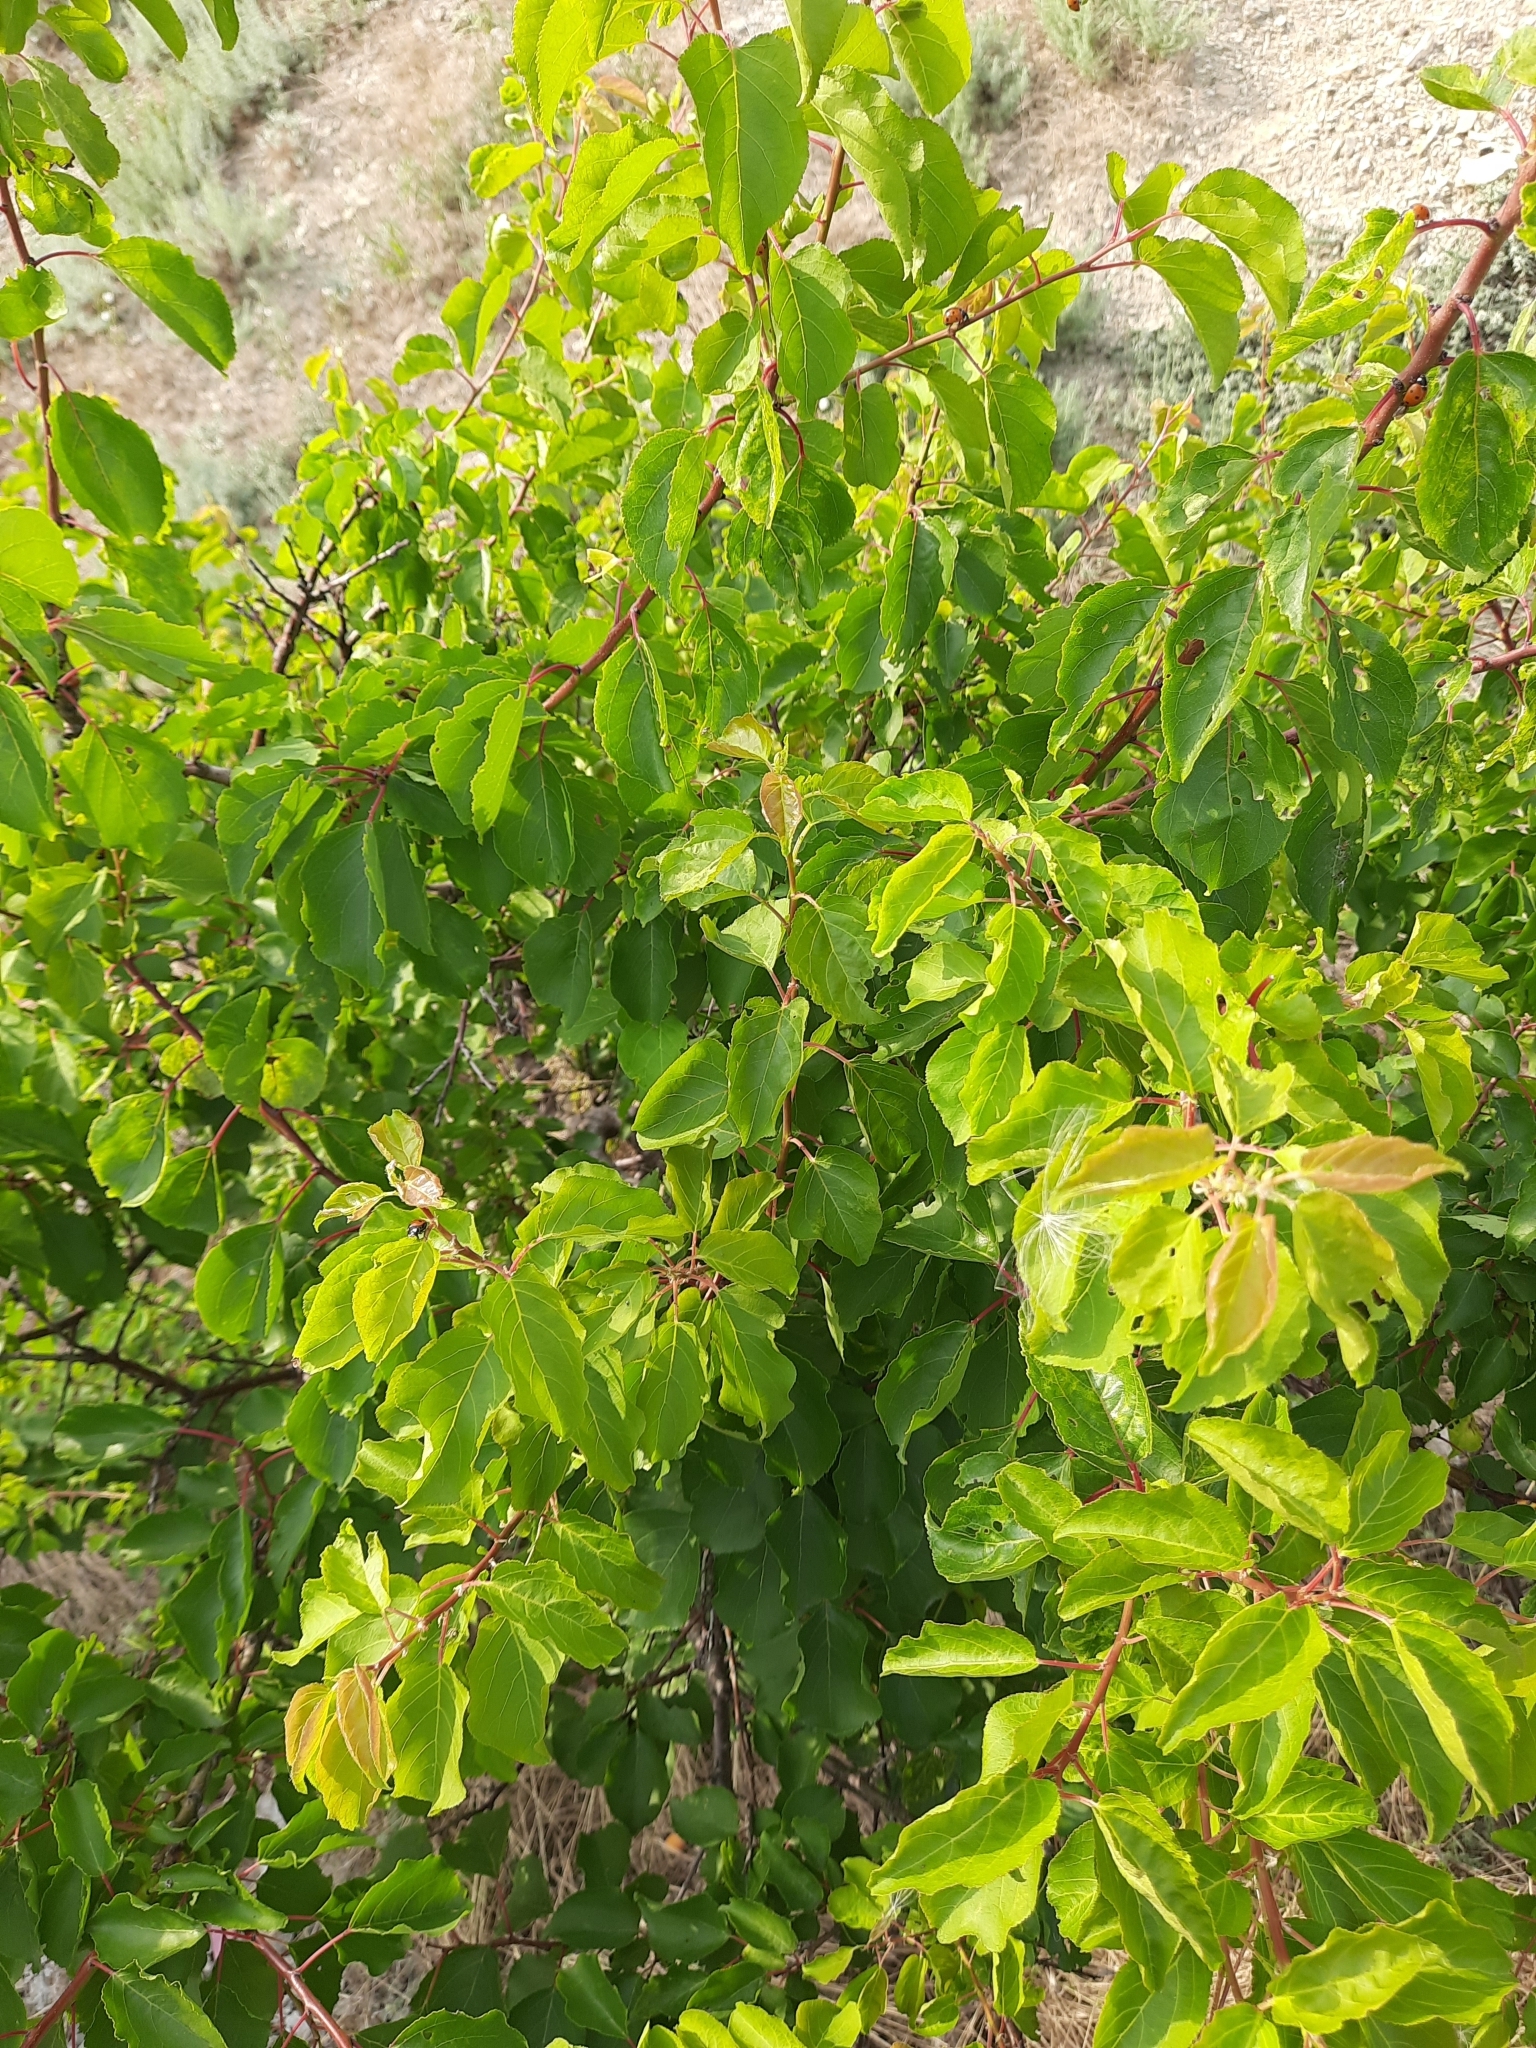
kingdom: Plantae
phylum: Tracheophyta
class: Magnoliopsida
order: Rosales
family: Rosaceae
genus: Prunus
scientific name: Prunus armeniaca
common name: Apricot
